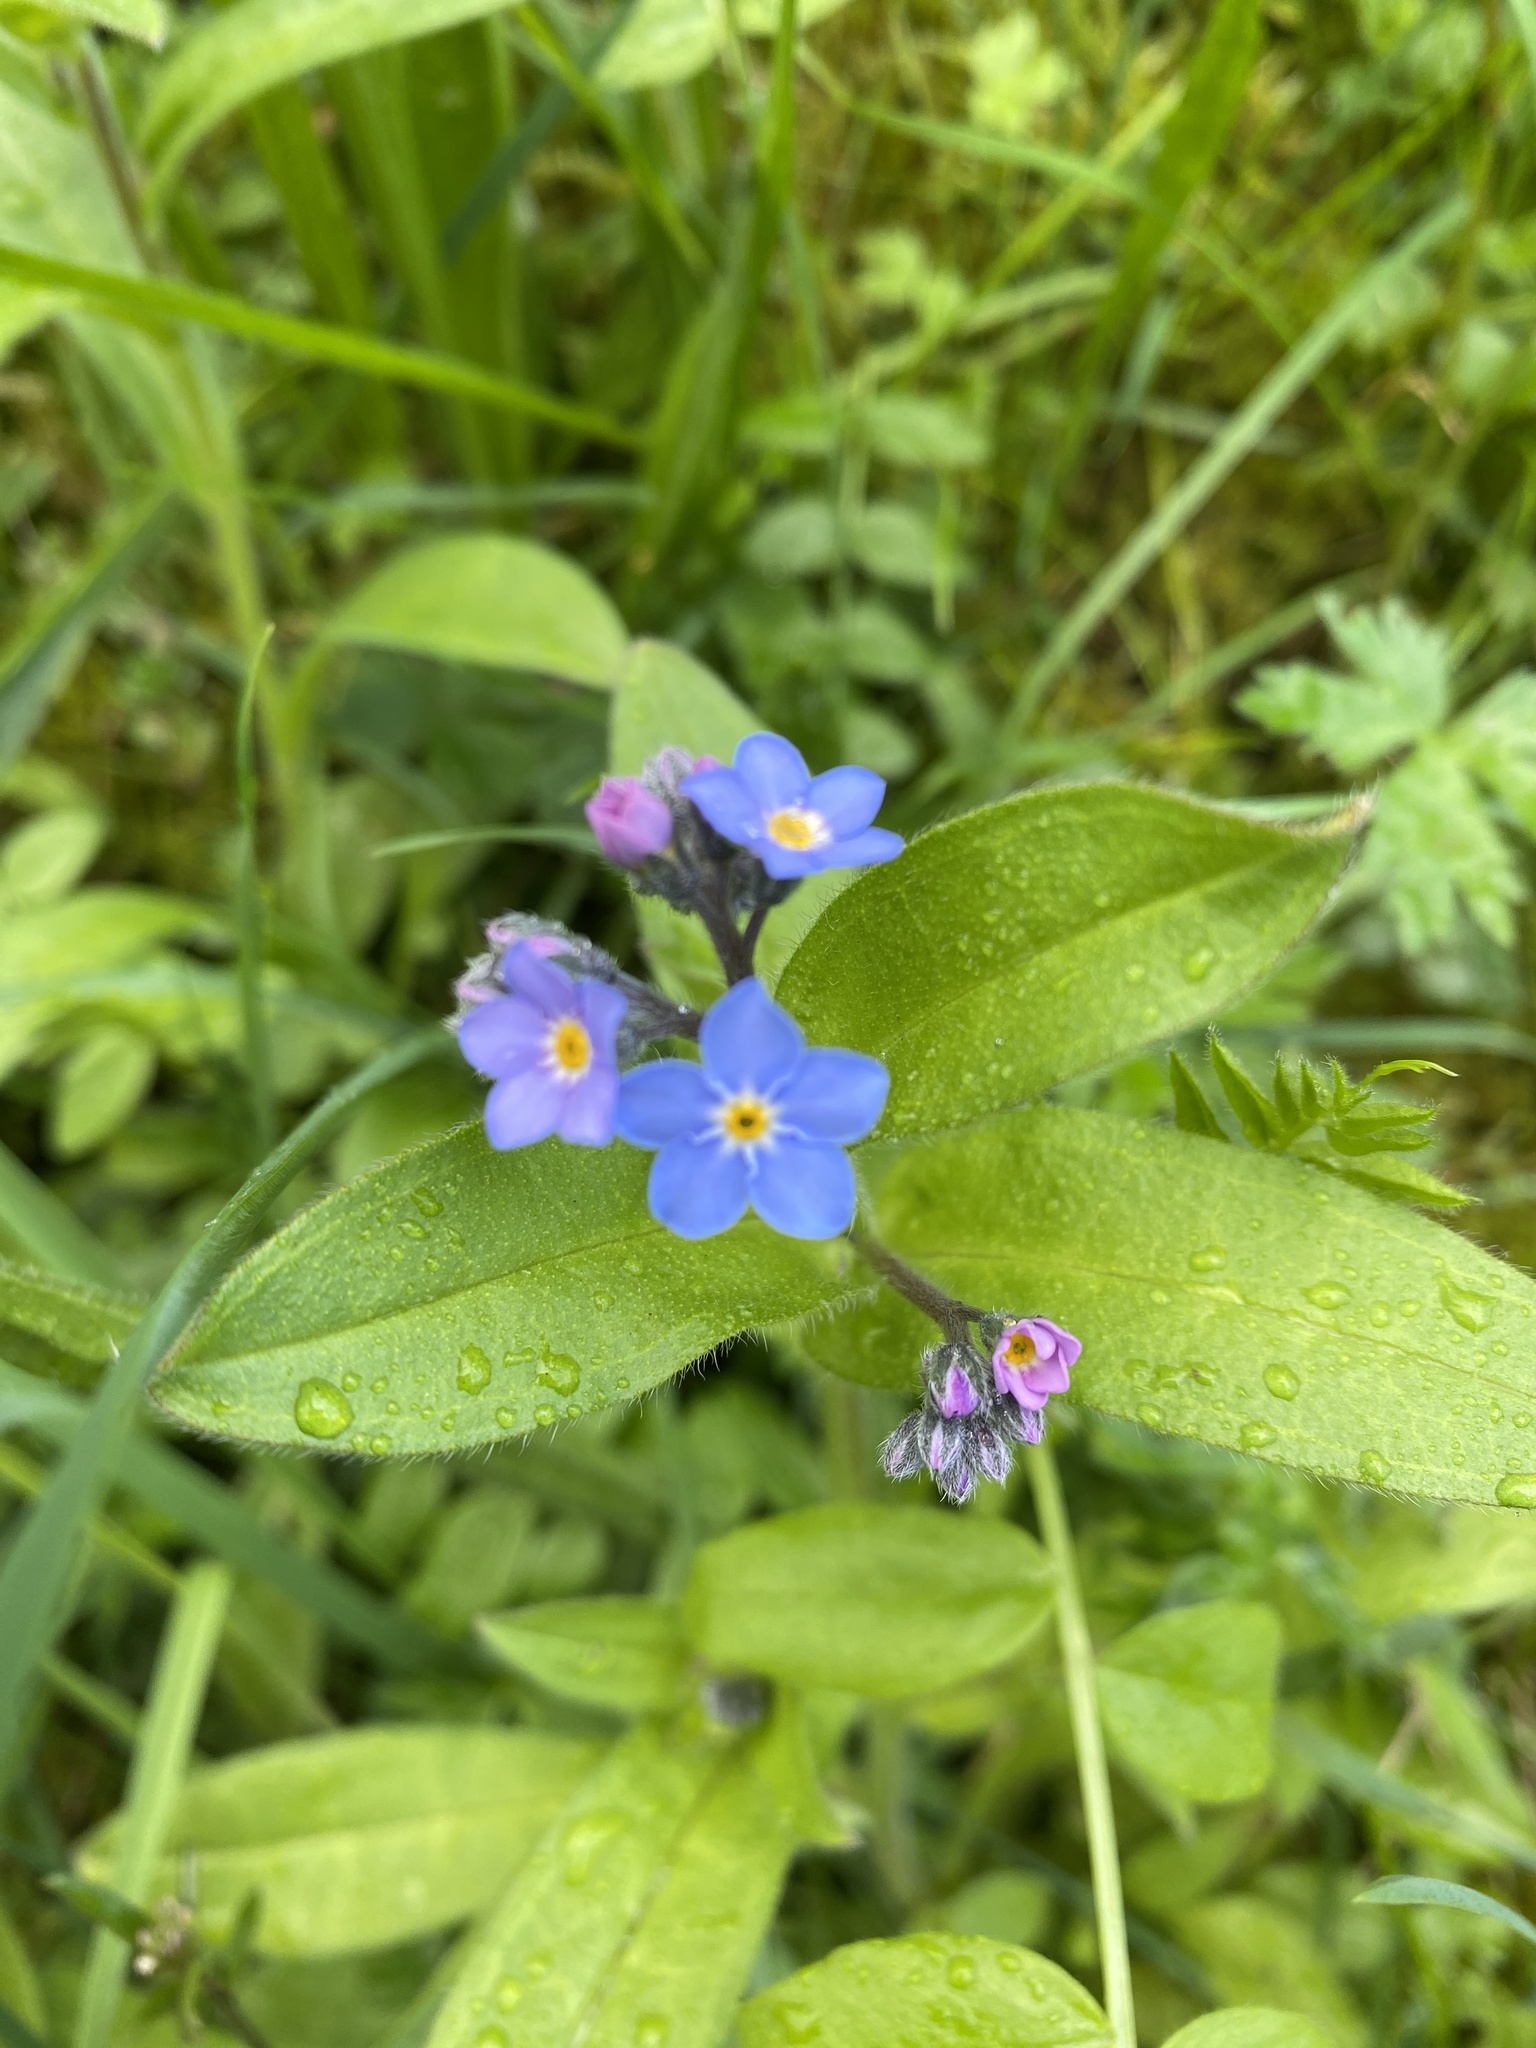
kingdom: Plantae
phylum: Tracheophyta
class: Magnoliopsida
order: Boraginales
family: Boraginaceae
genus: Myosotis
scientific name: Myosotis sylvatica
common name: Wood forget-me-not
